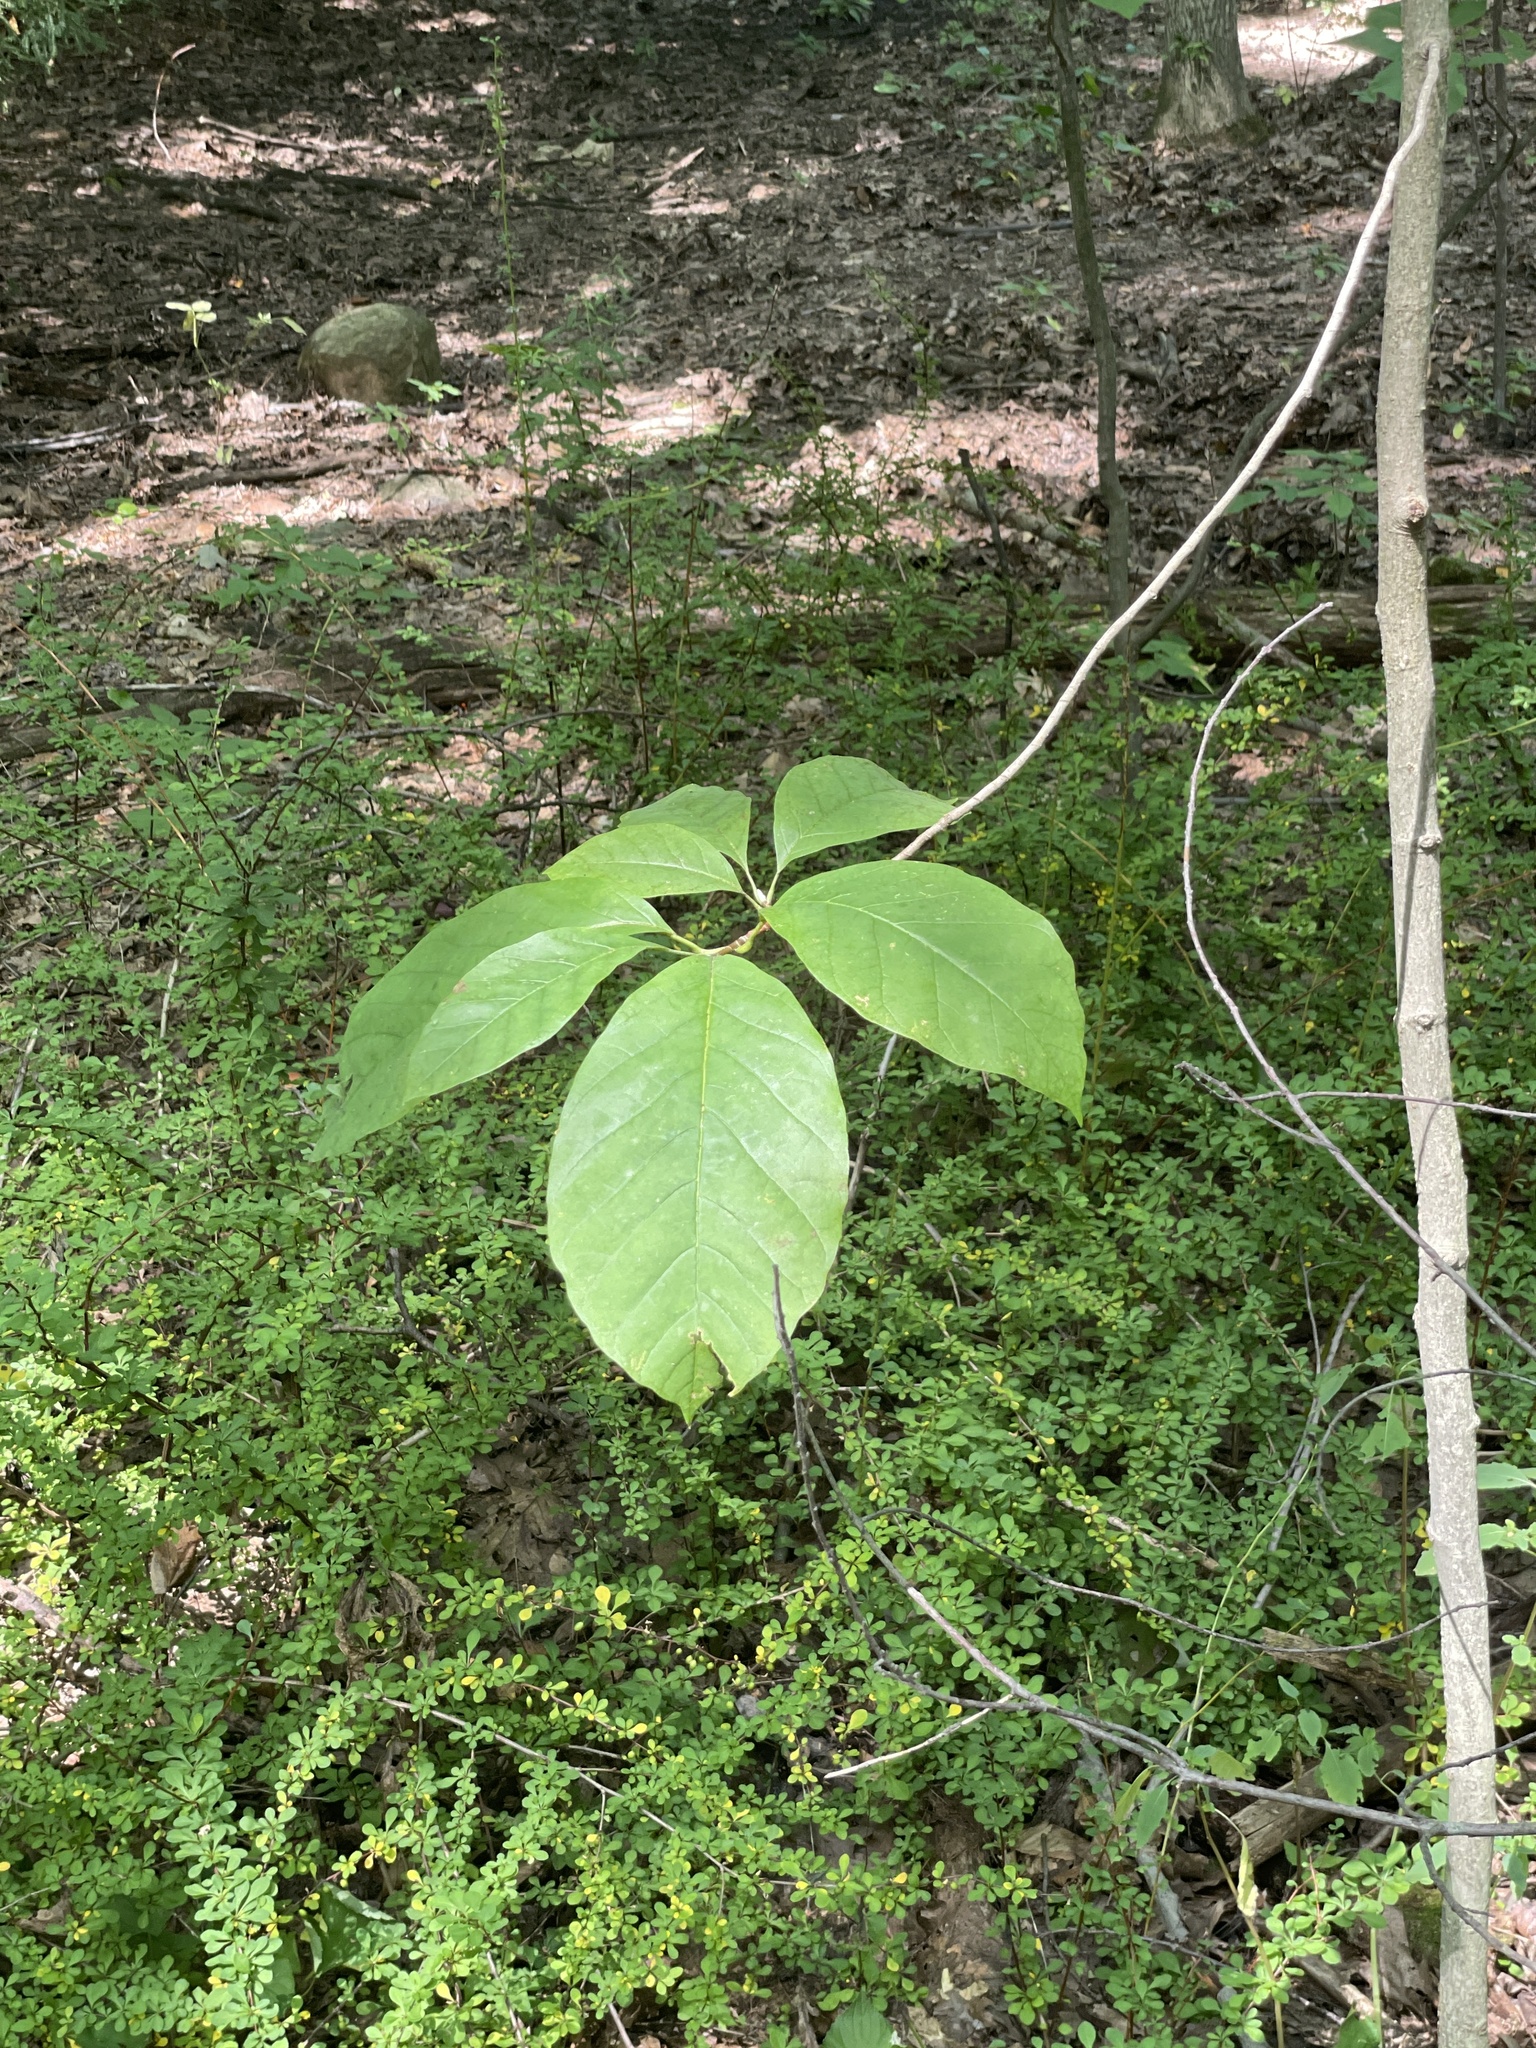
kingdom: Plantae
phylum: Tracheophyta
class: Magnoliopsida
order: Magnoliales
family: Magnoliaceae
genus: Magnolia
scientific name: Magnolia acuminata
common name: Cucumber magnolia
